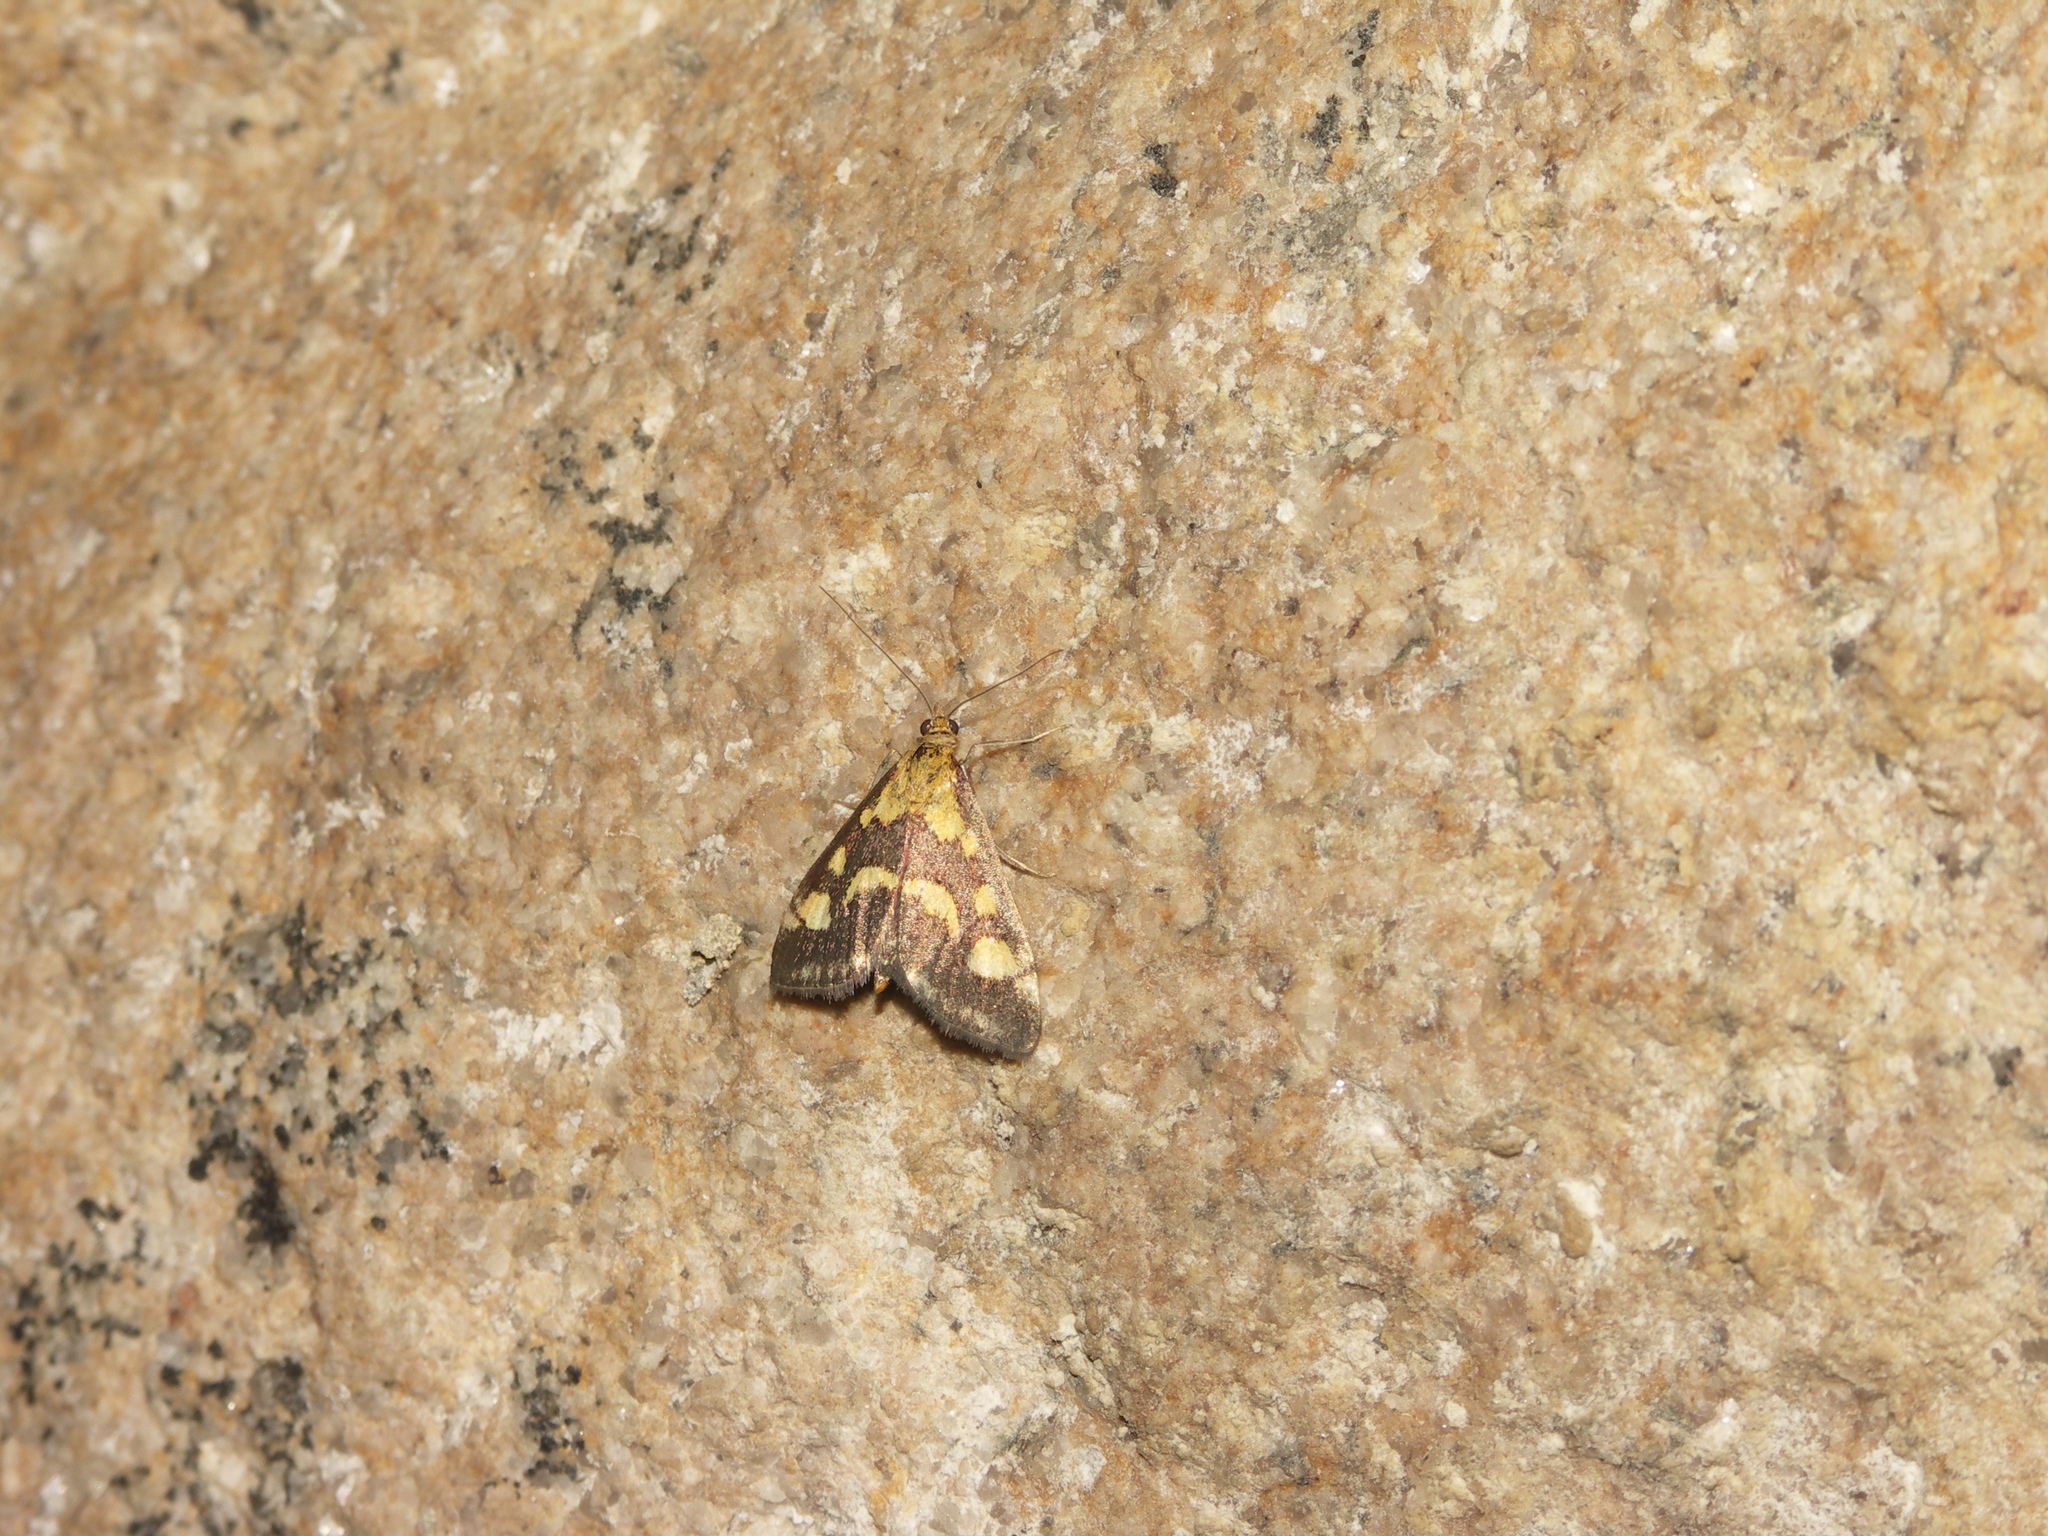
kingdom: Animalia
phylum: Arthropoda
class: Insecta
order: Lepidoptera
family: Crambidae
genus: Pyrausta
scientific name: Pyrausta purpuralis
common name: Common purple & gold
